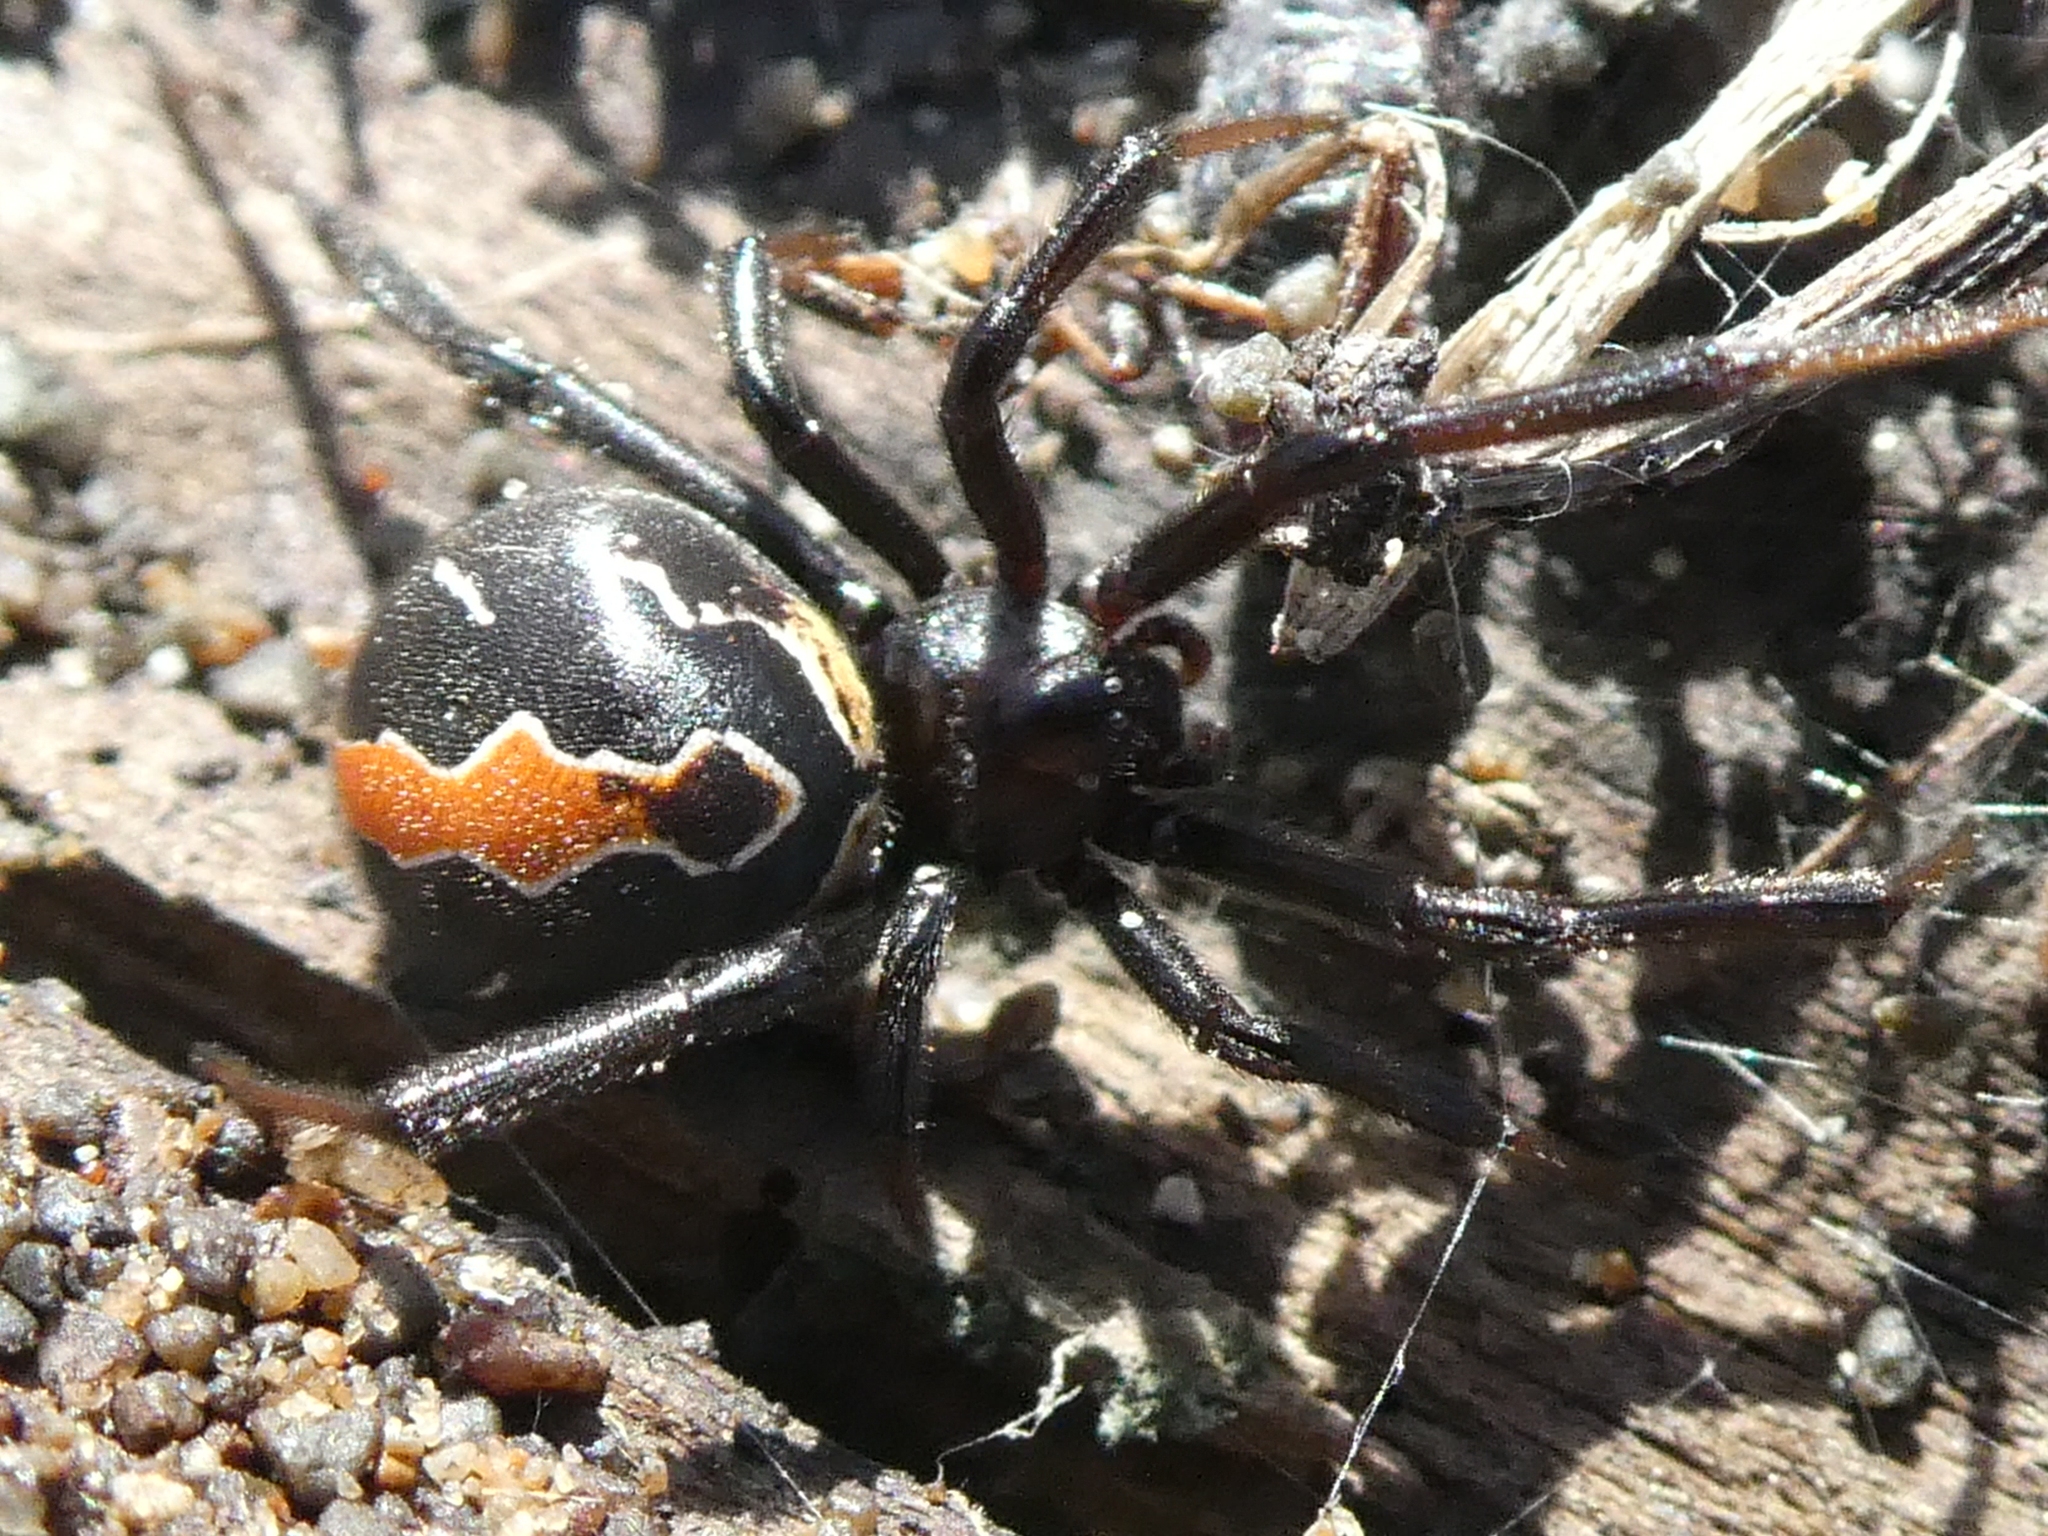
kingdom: Animalia
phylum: Arthropoda
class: Arachnida
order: Araneae
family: Theridiidae
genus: Latrodectus
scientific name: Latrodectus katipo
